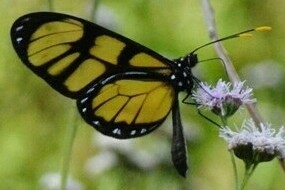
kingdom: Animalia
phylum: Arthropoda
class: Insecta
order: Lepidoptera
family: Nymphalidae
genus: Dircenna
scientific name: Dircenna dero
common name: Dero clearwing
